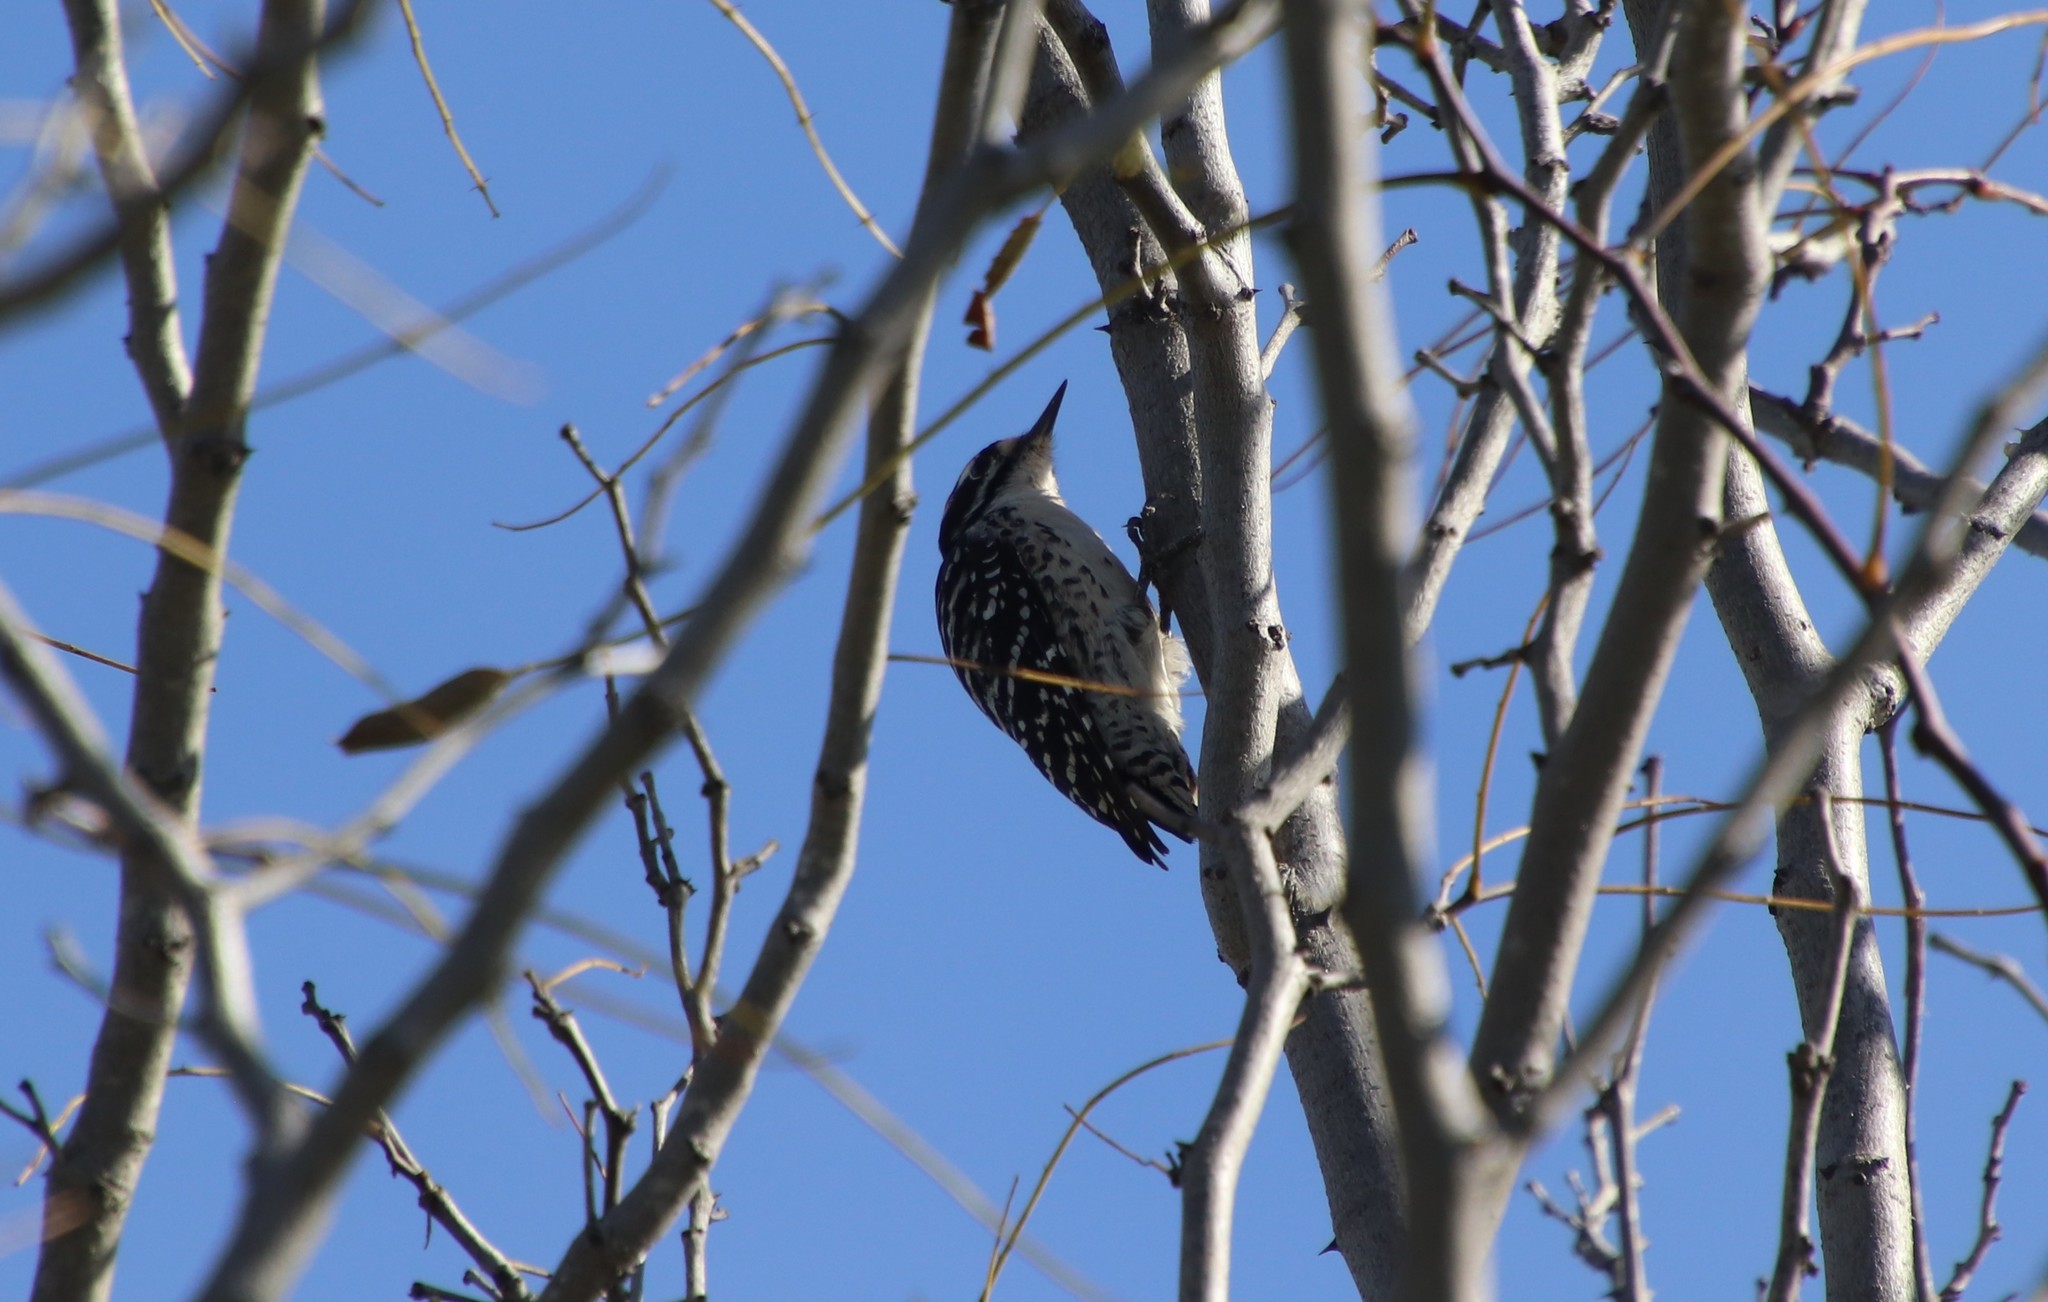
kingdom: Animalia
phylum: Chordata
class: Aves
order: Piciformes
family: Picidae
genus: Dryobates
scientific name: Dryobates nuttallii
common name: Nuttall's woodpecker
